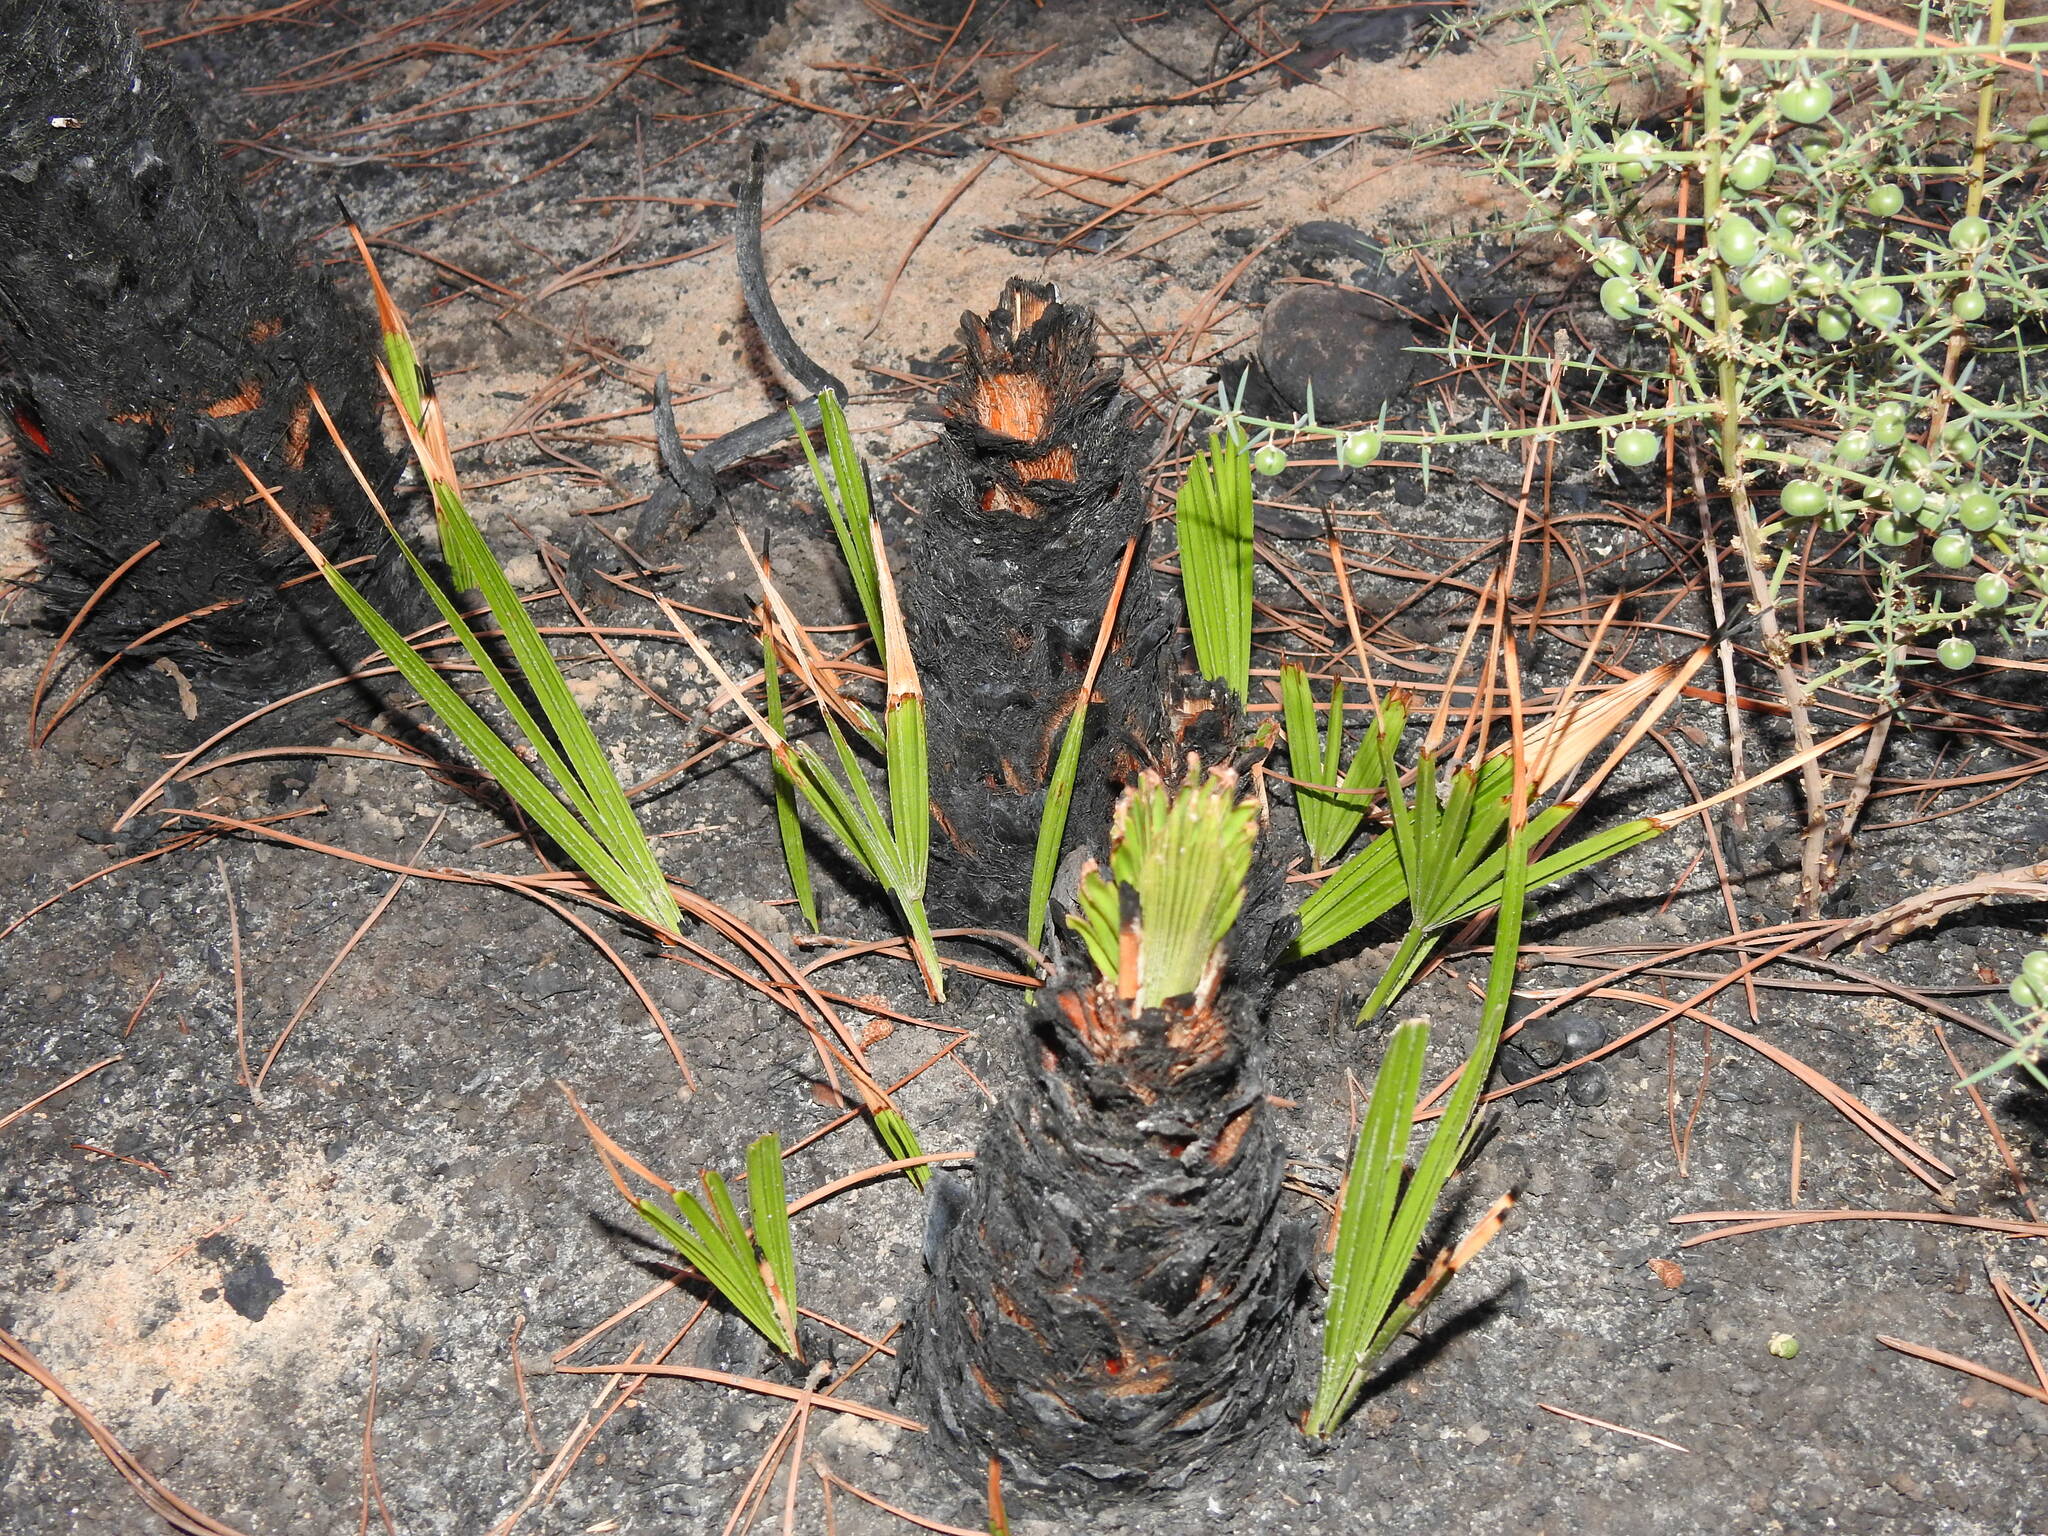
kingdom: Plantae
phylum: Tracheophyta
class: Liliopsida
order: Arecales
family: Arecaceae
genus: Chamaerops
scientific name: Chamaerops humilis
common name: Dwarf fan palm
